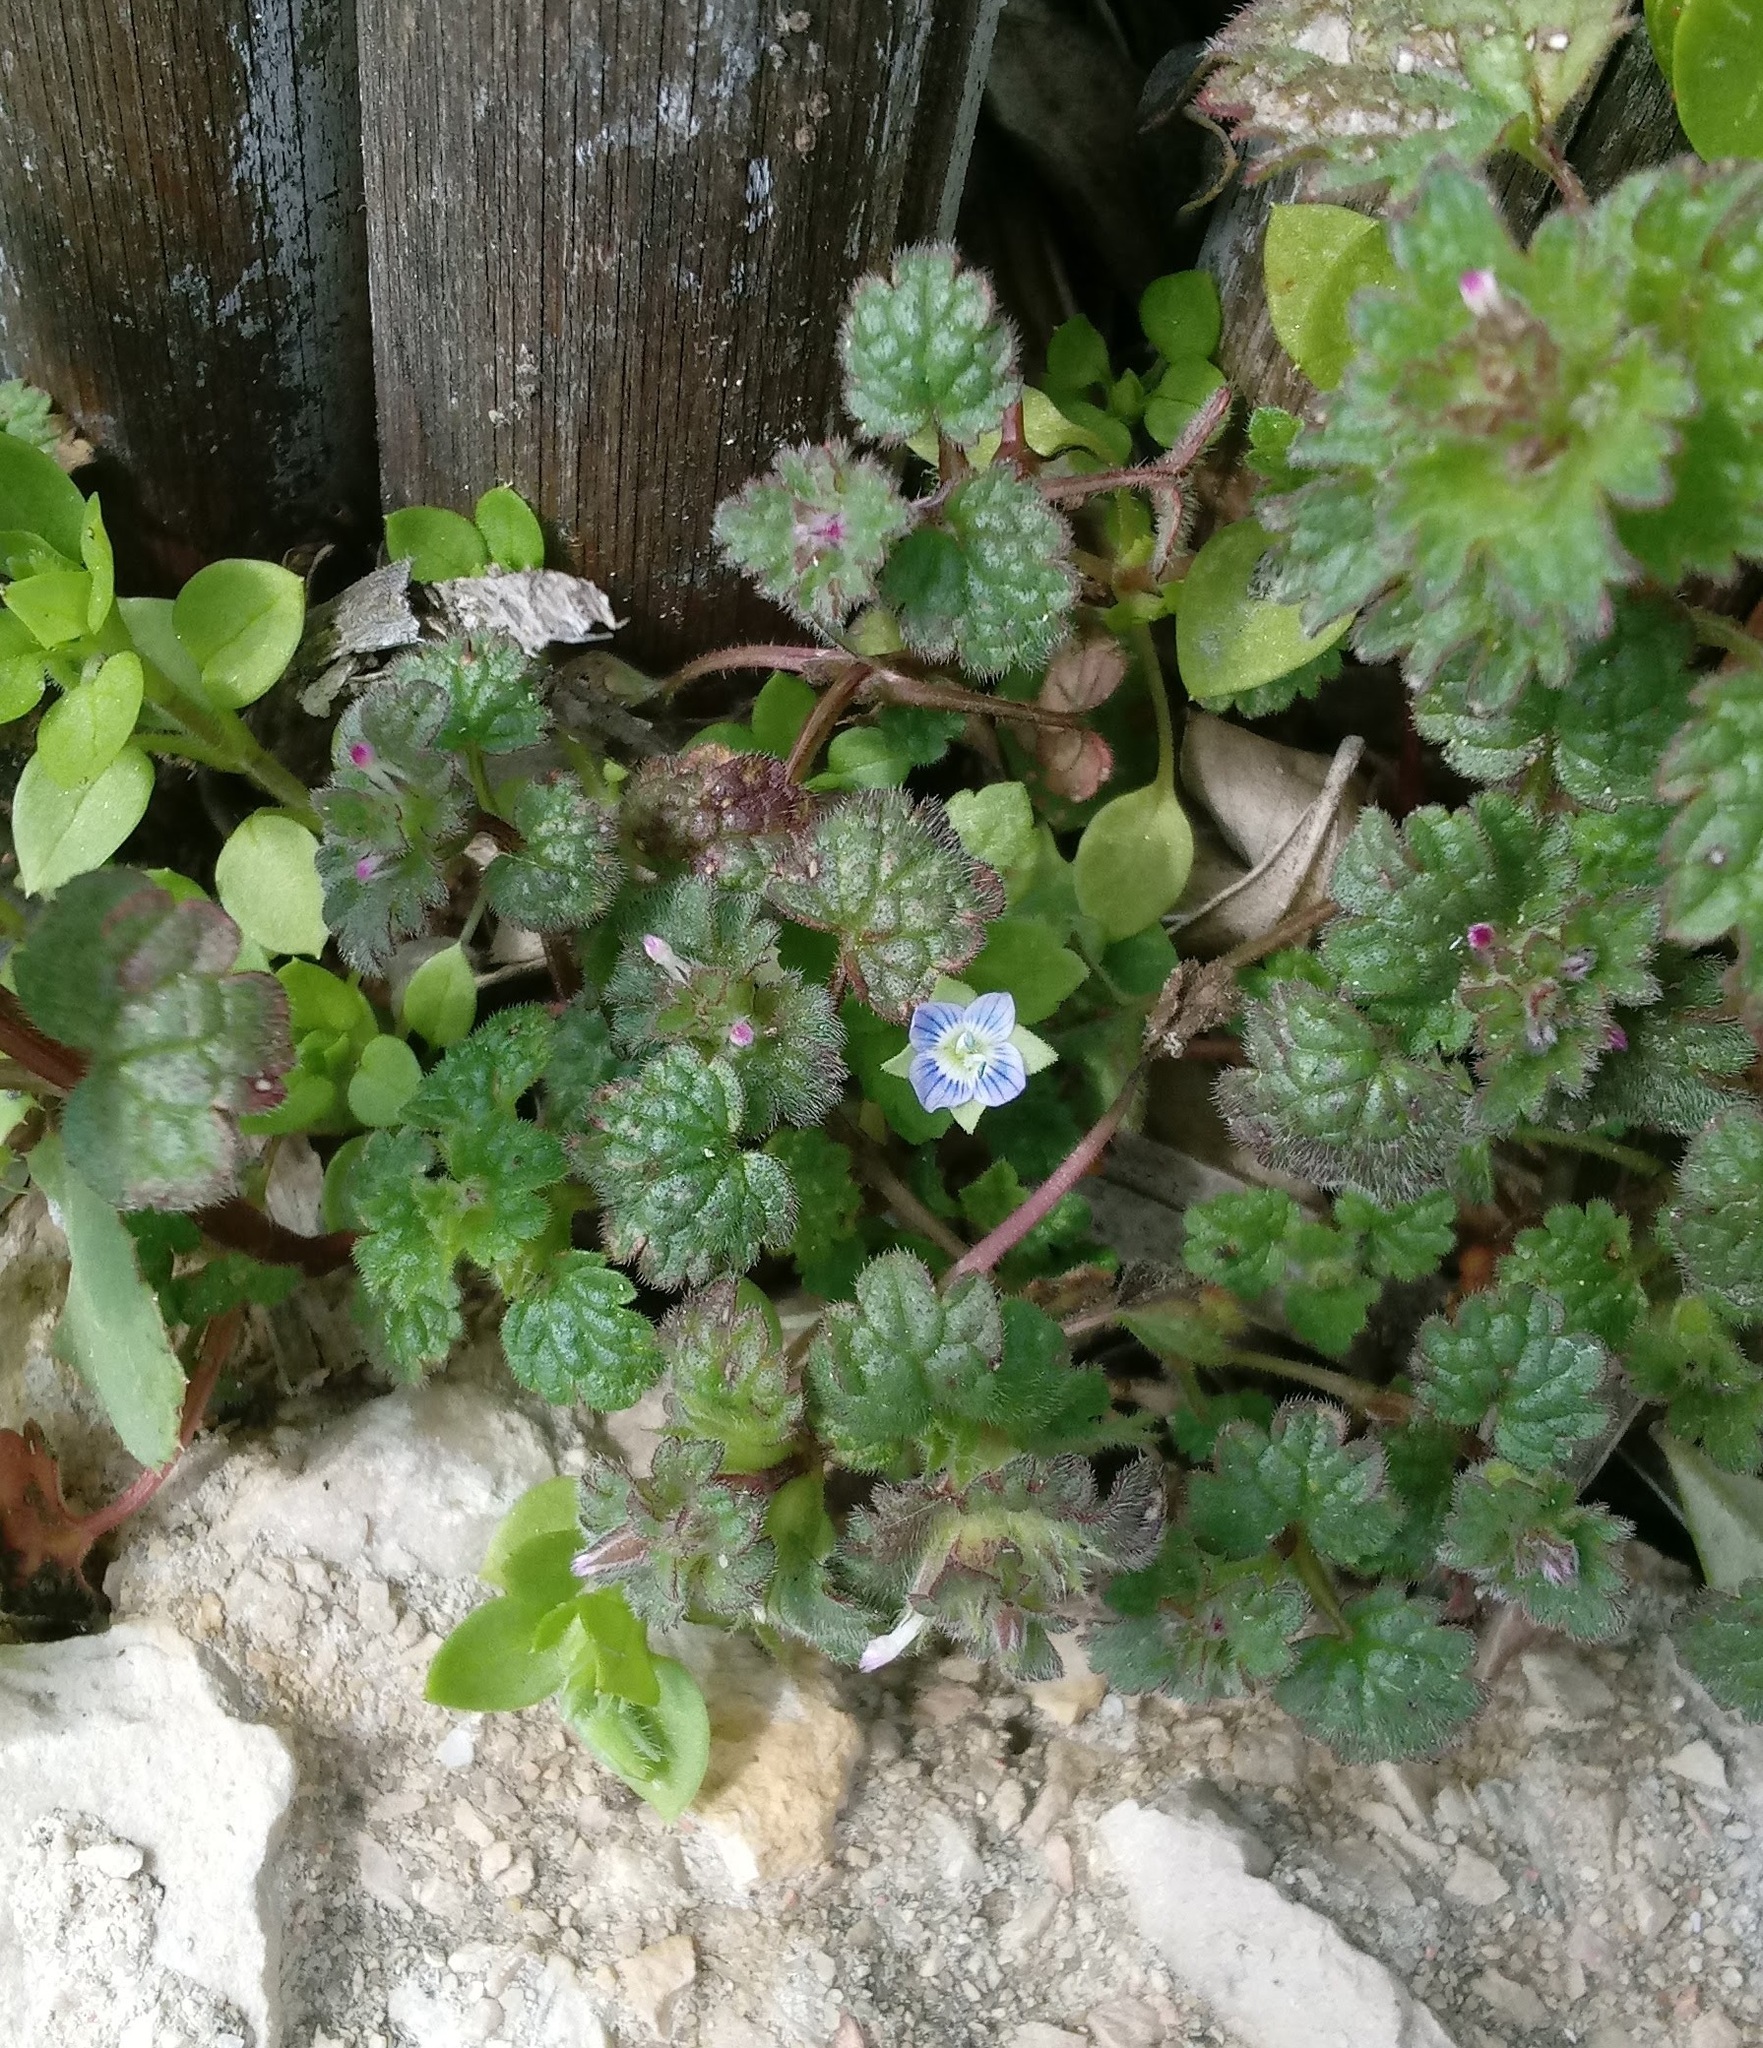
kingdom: Plantae
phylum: Tracheophyta
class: Magnoliopsida
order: Lamiales
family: Plantaginaceae
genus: Veronica
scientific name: Veronica polita
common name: Grey field-speedwell
